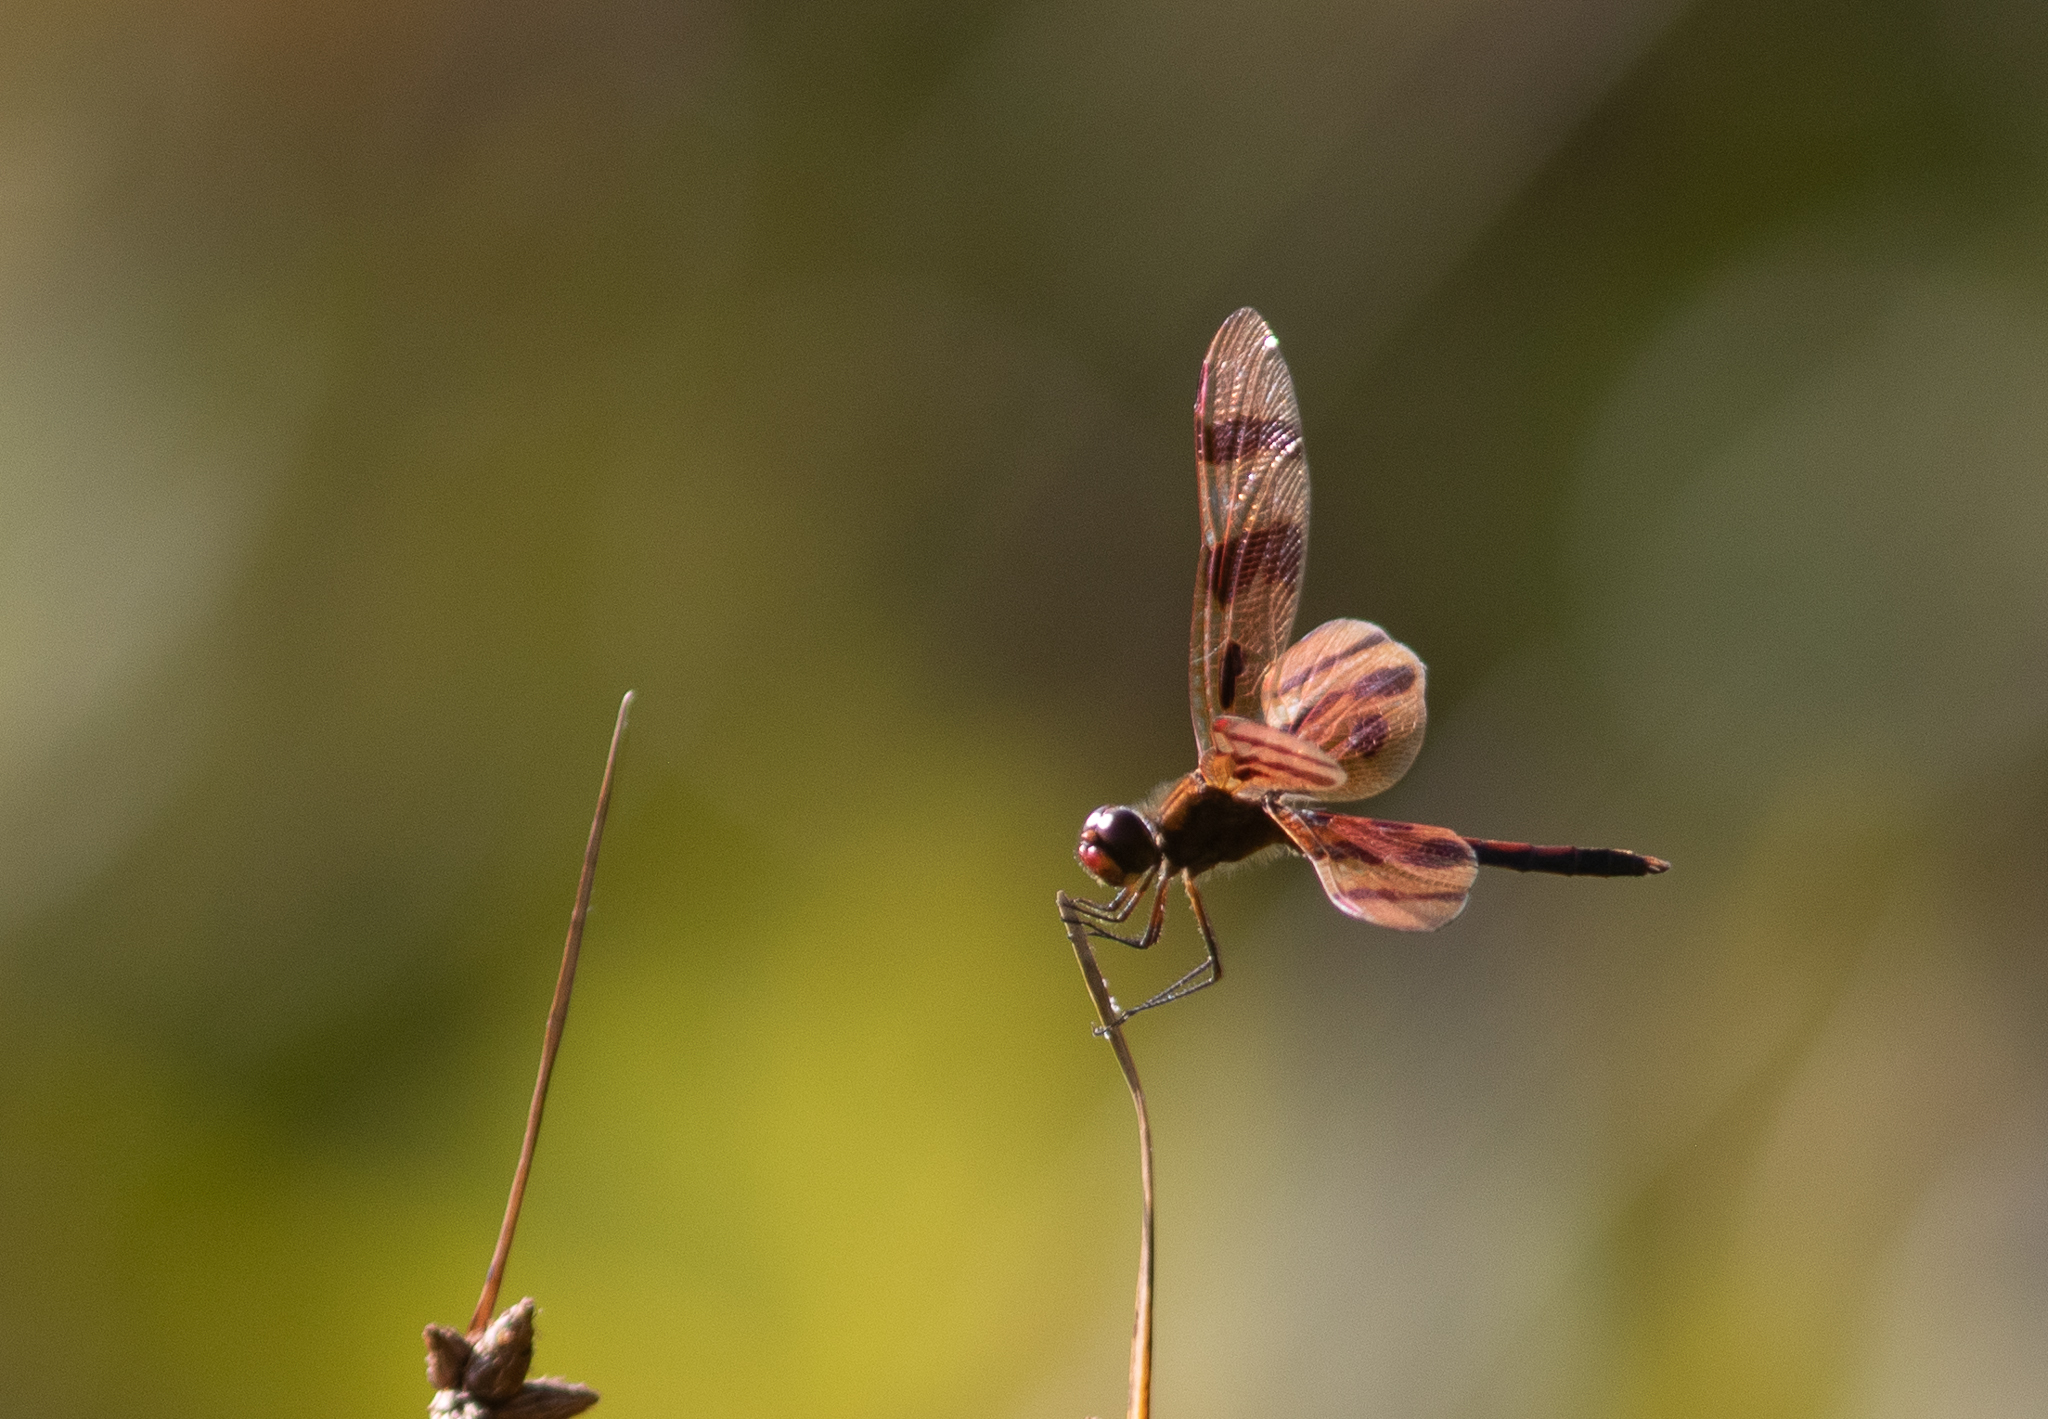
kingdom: Animalia
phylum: Arthropoda
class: Insecta
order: Odonata
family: Libellulidae
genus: Celithemis
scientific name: Celithemis eponina
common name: Halloween pennant
